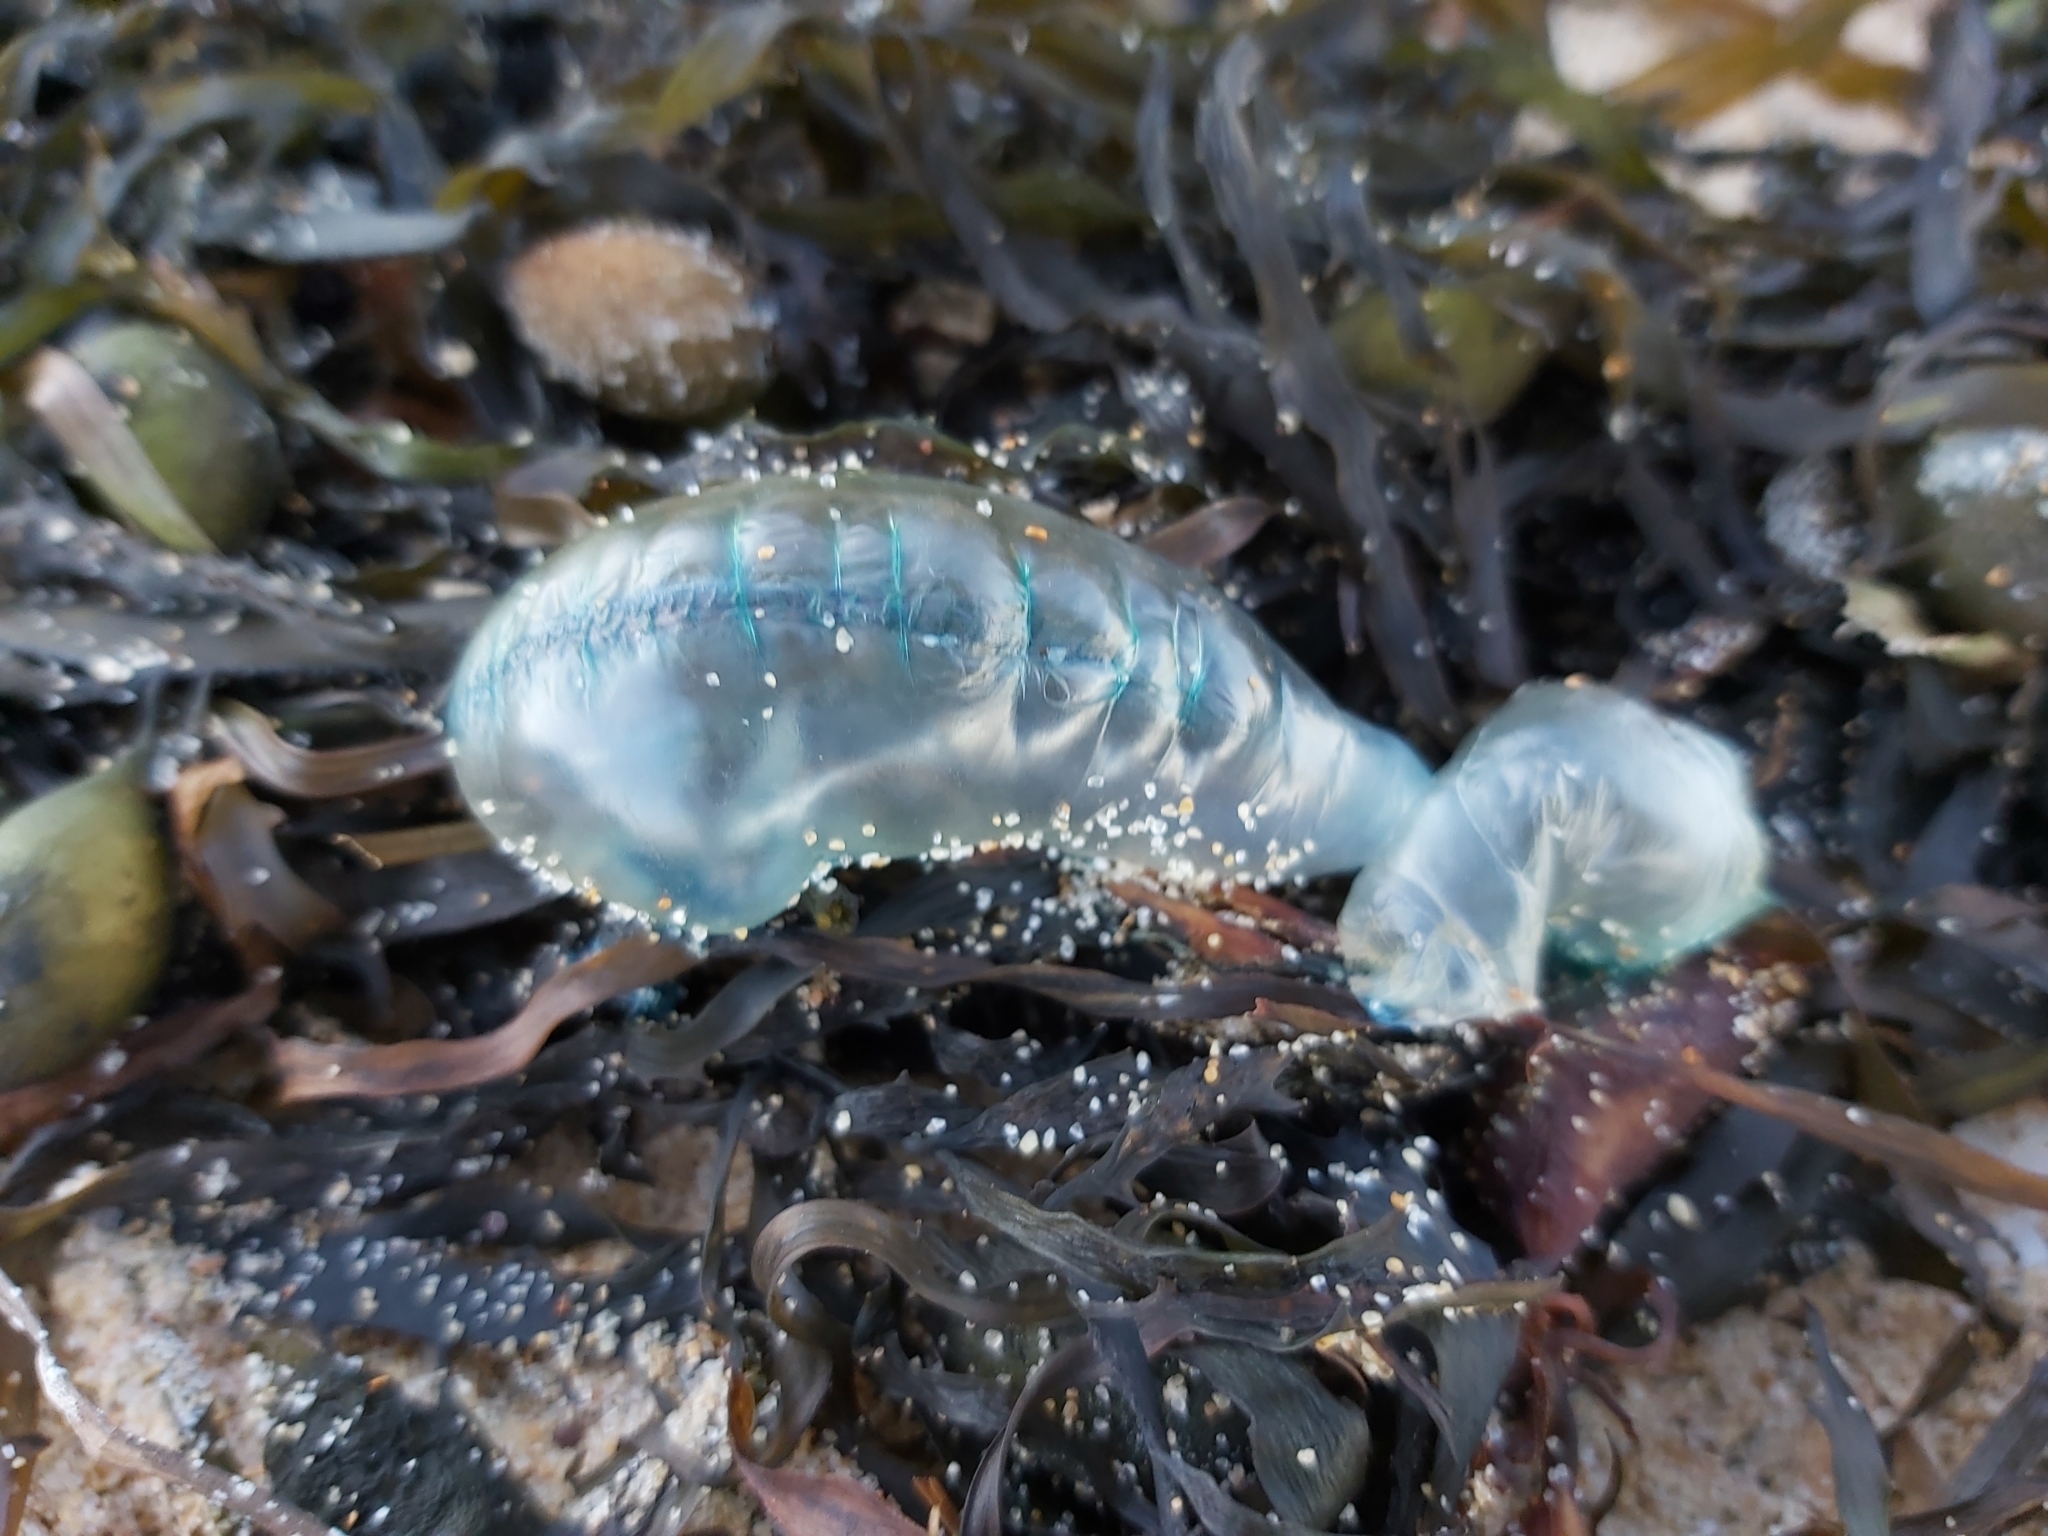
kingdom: Animalia
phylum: Cnidaria
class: Hydrozoa
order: Siphonophorae
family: Physaliidae
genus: Physalia
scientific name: Physalia physalis
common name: Portuguese man-of-war
